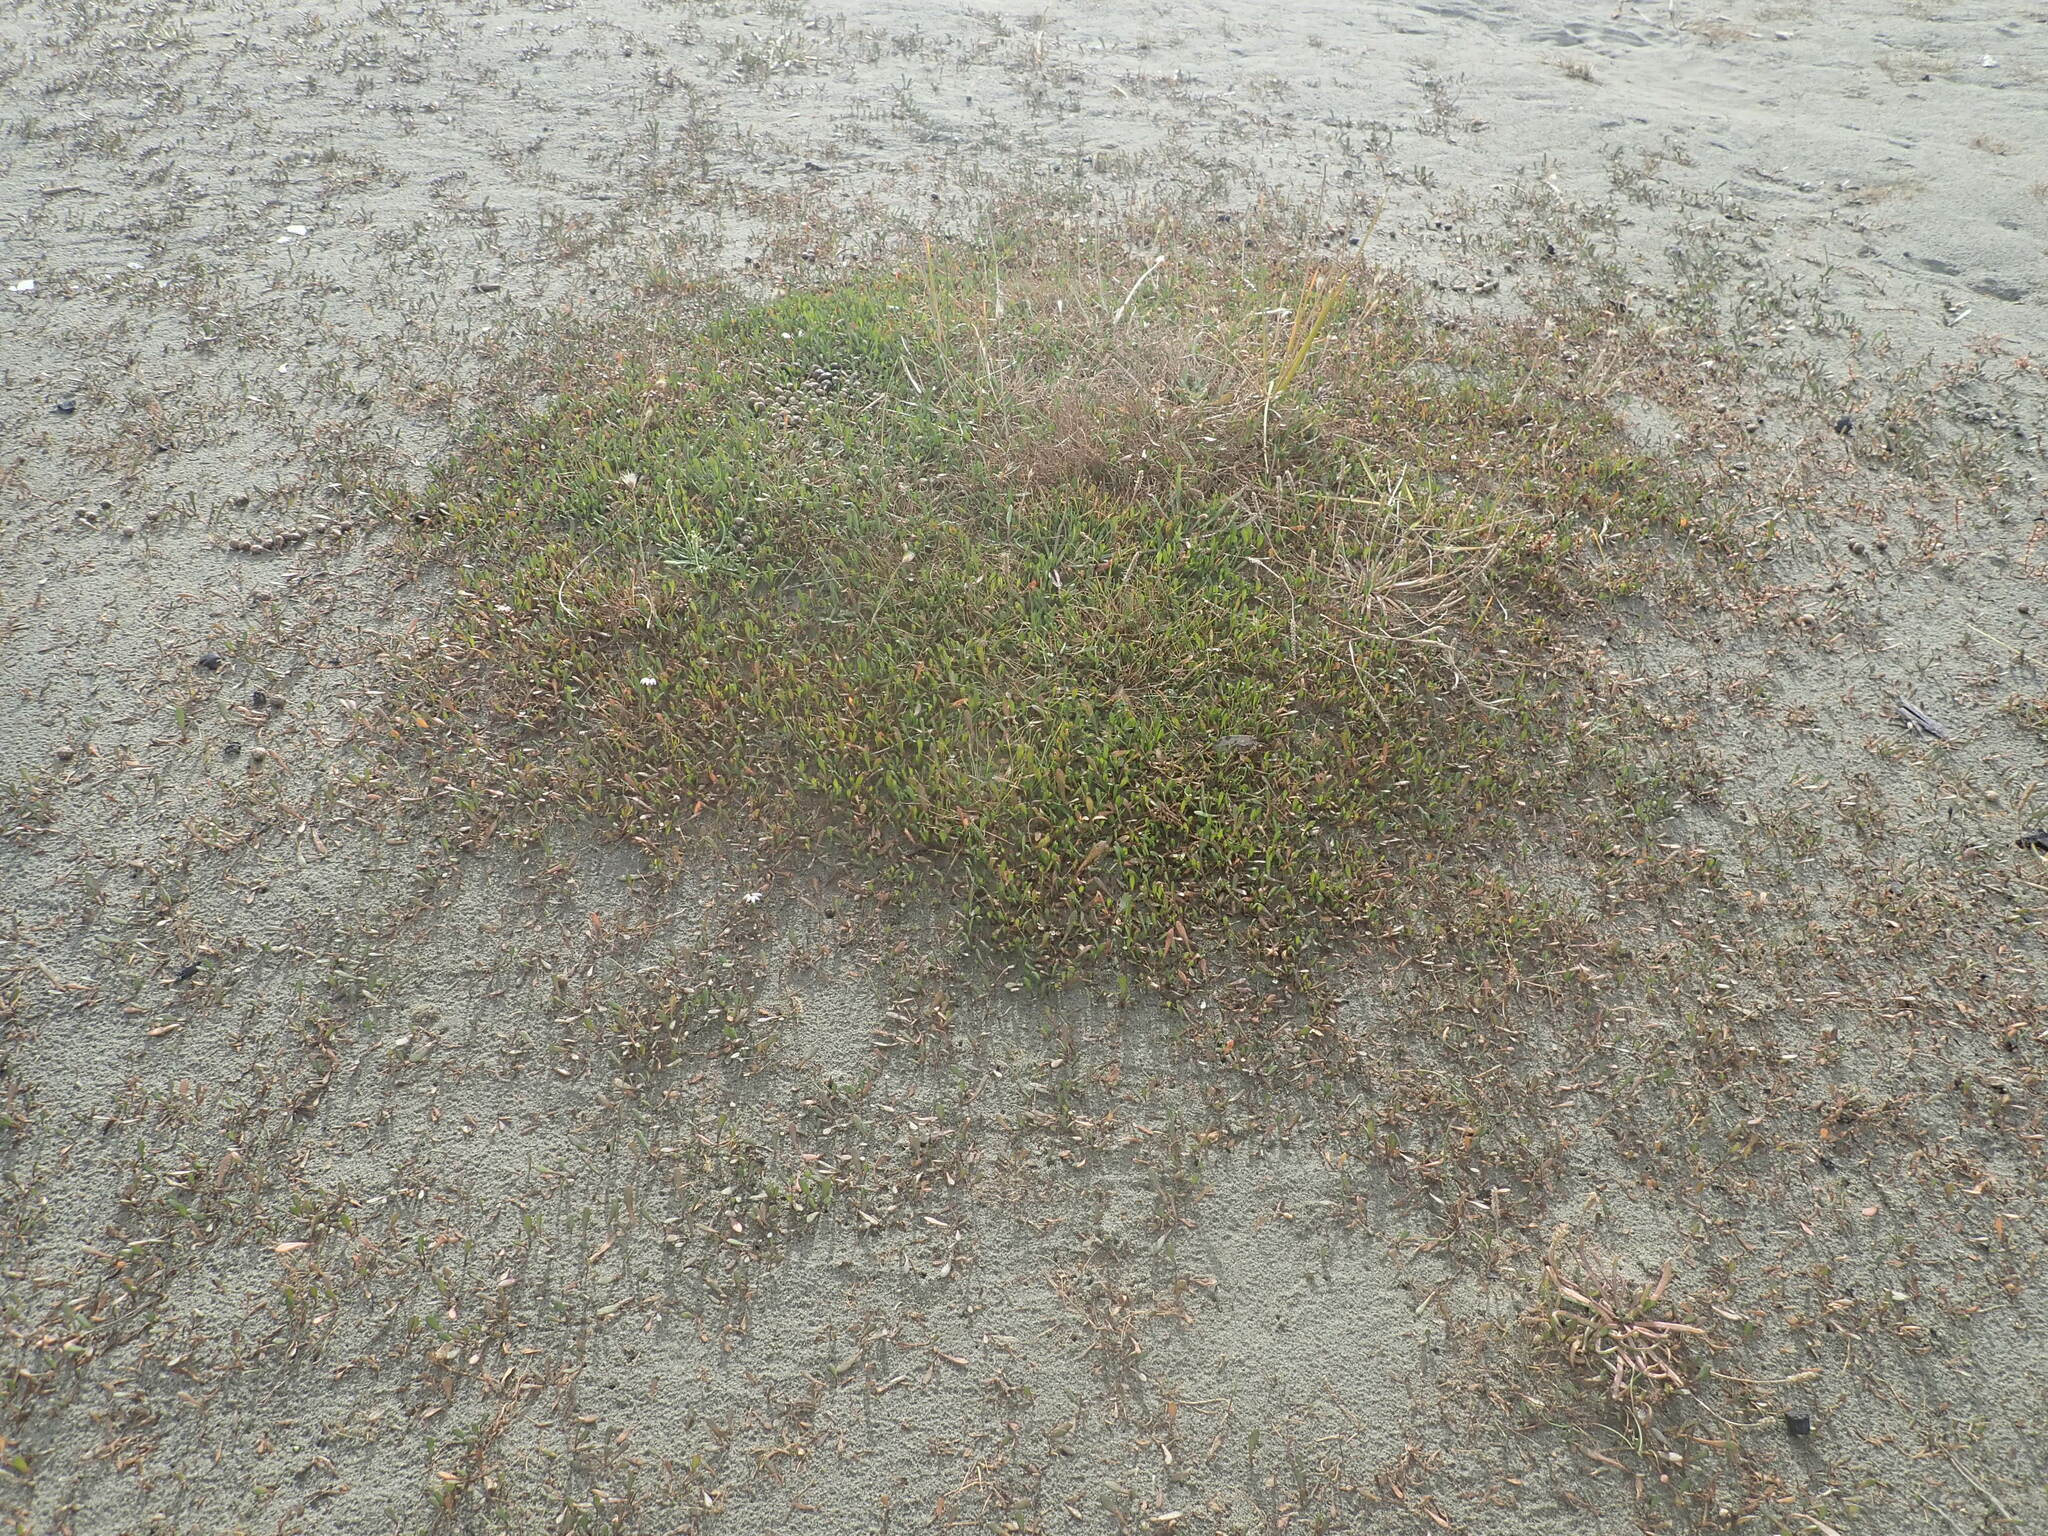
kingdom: Plantae
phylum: Tracheophyta
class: Magnoliopsida
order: Asterales
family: Goodeniaceae
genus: Goodenia
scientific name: Goodenia radicans
